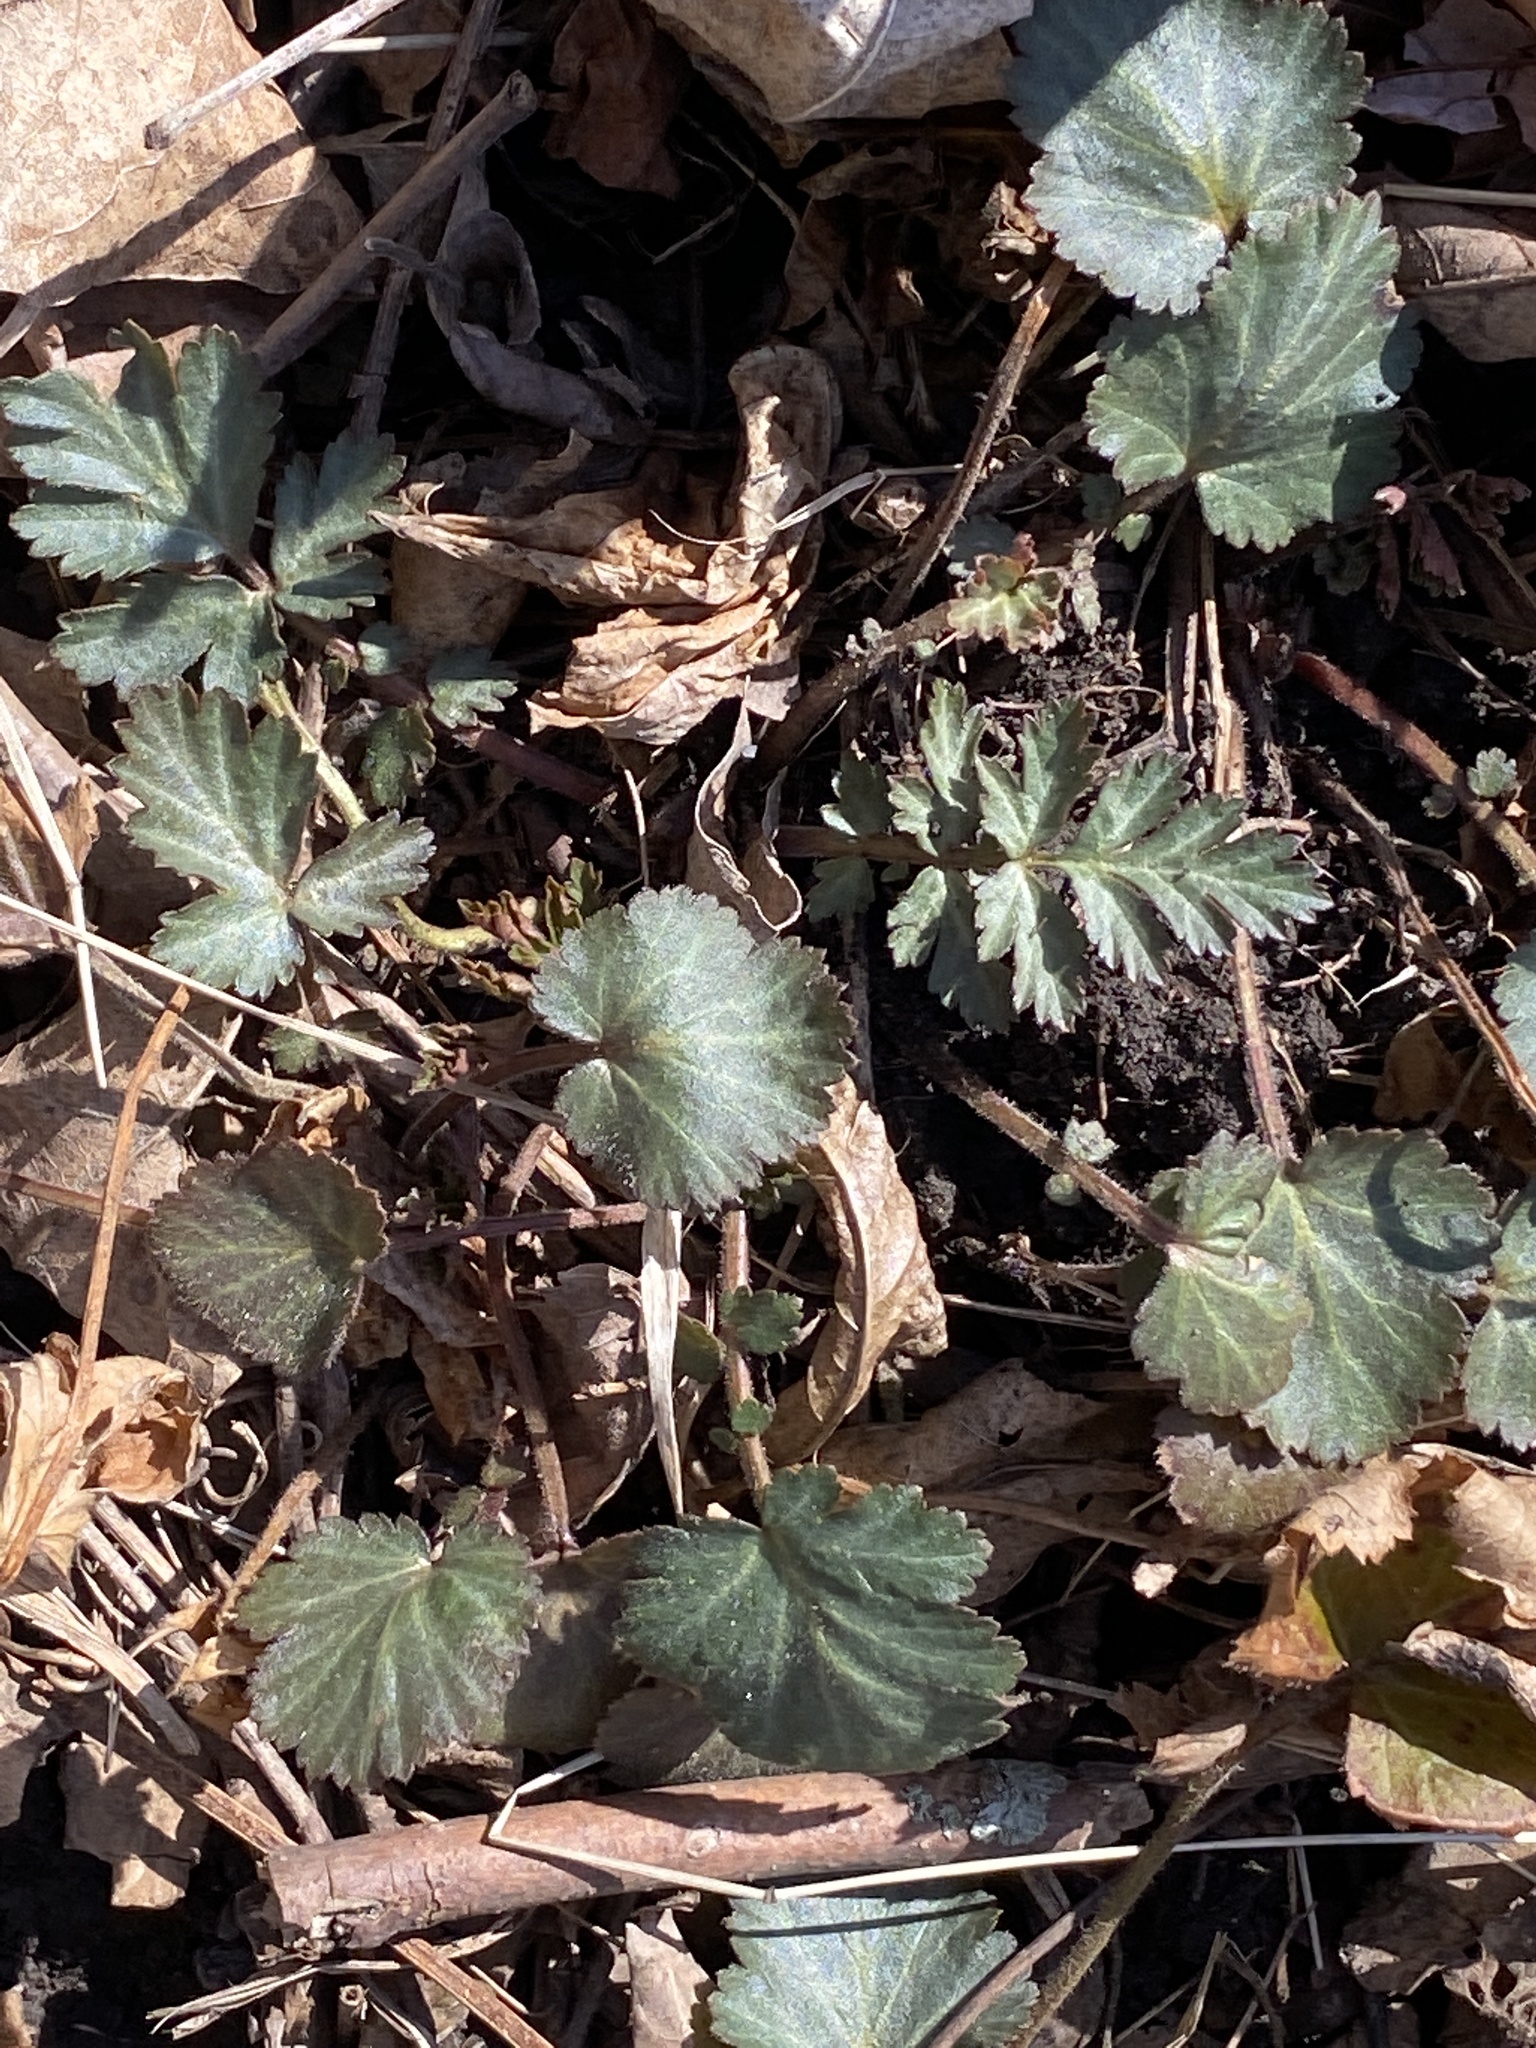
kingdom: Plantae
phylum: Tracheophyta
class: Magnoliopsida
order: Rosales
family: Rosaceae
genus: Geum
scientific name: Geum canadense
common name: White avens
